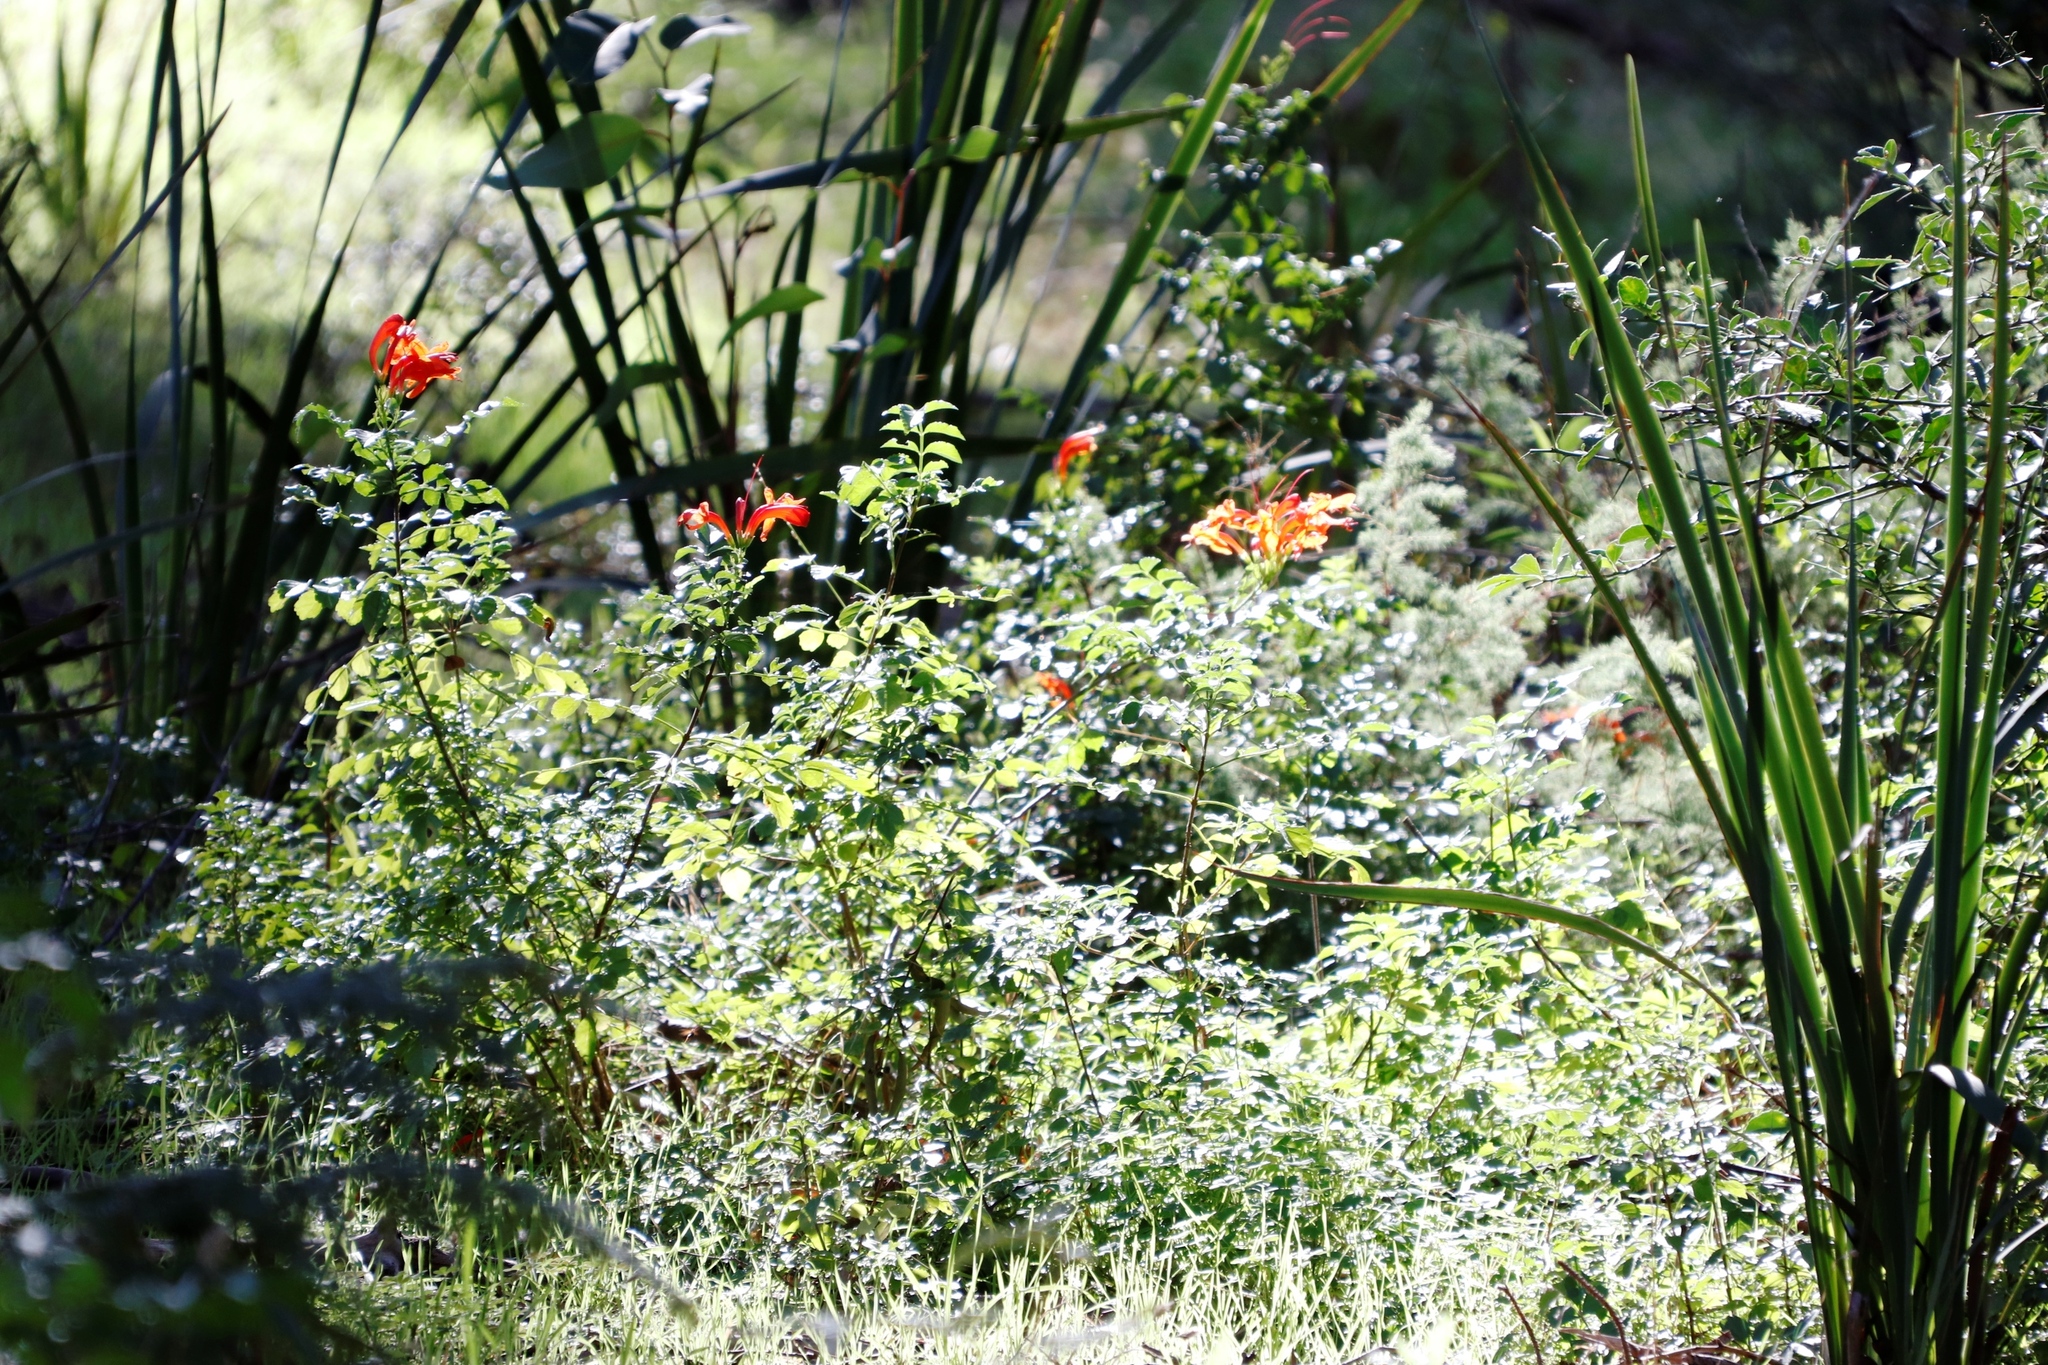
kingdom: Plantae
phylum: Tracheophyta
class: Magnoliopsida
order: Lamiales
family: Bignoniaceae
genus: Tecomaria
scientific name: Tecomaria capensis
